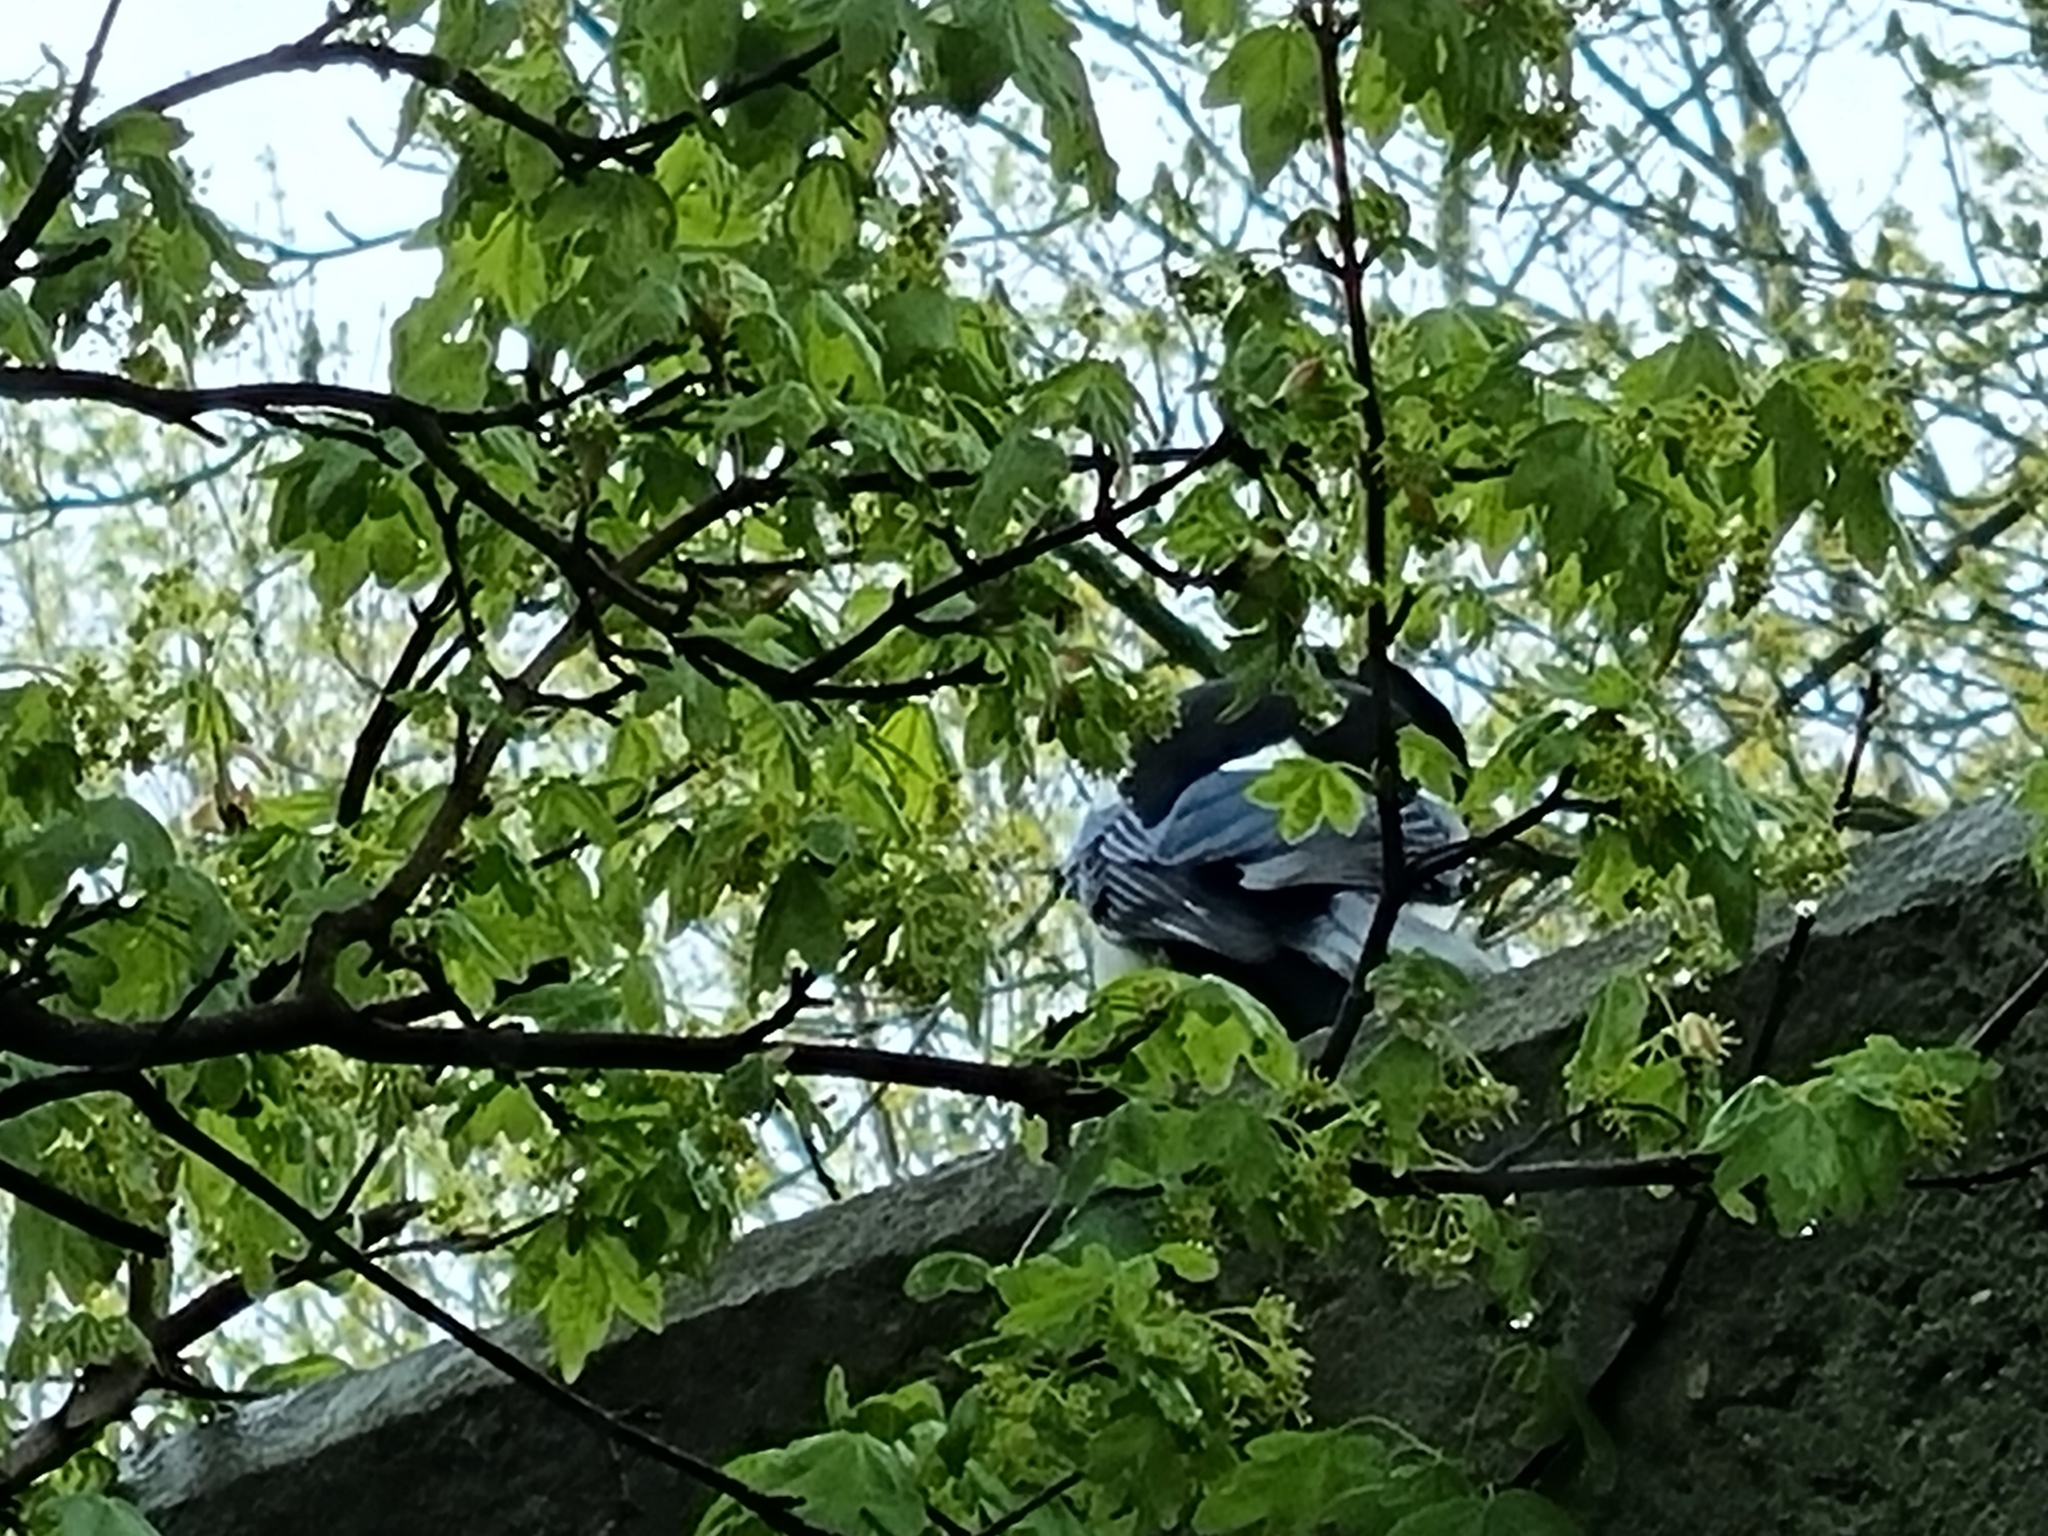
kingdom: Animalia
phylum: Chordata
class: Aves
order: Passeriformes
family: Corvidae
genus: Pica
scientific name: Pica pica
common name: Eurasian magpie
